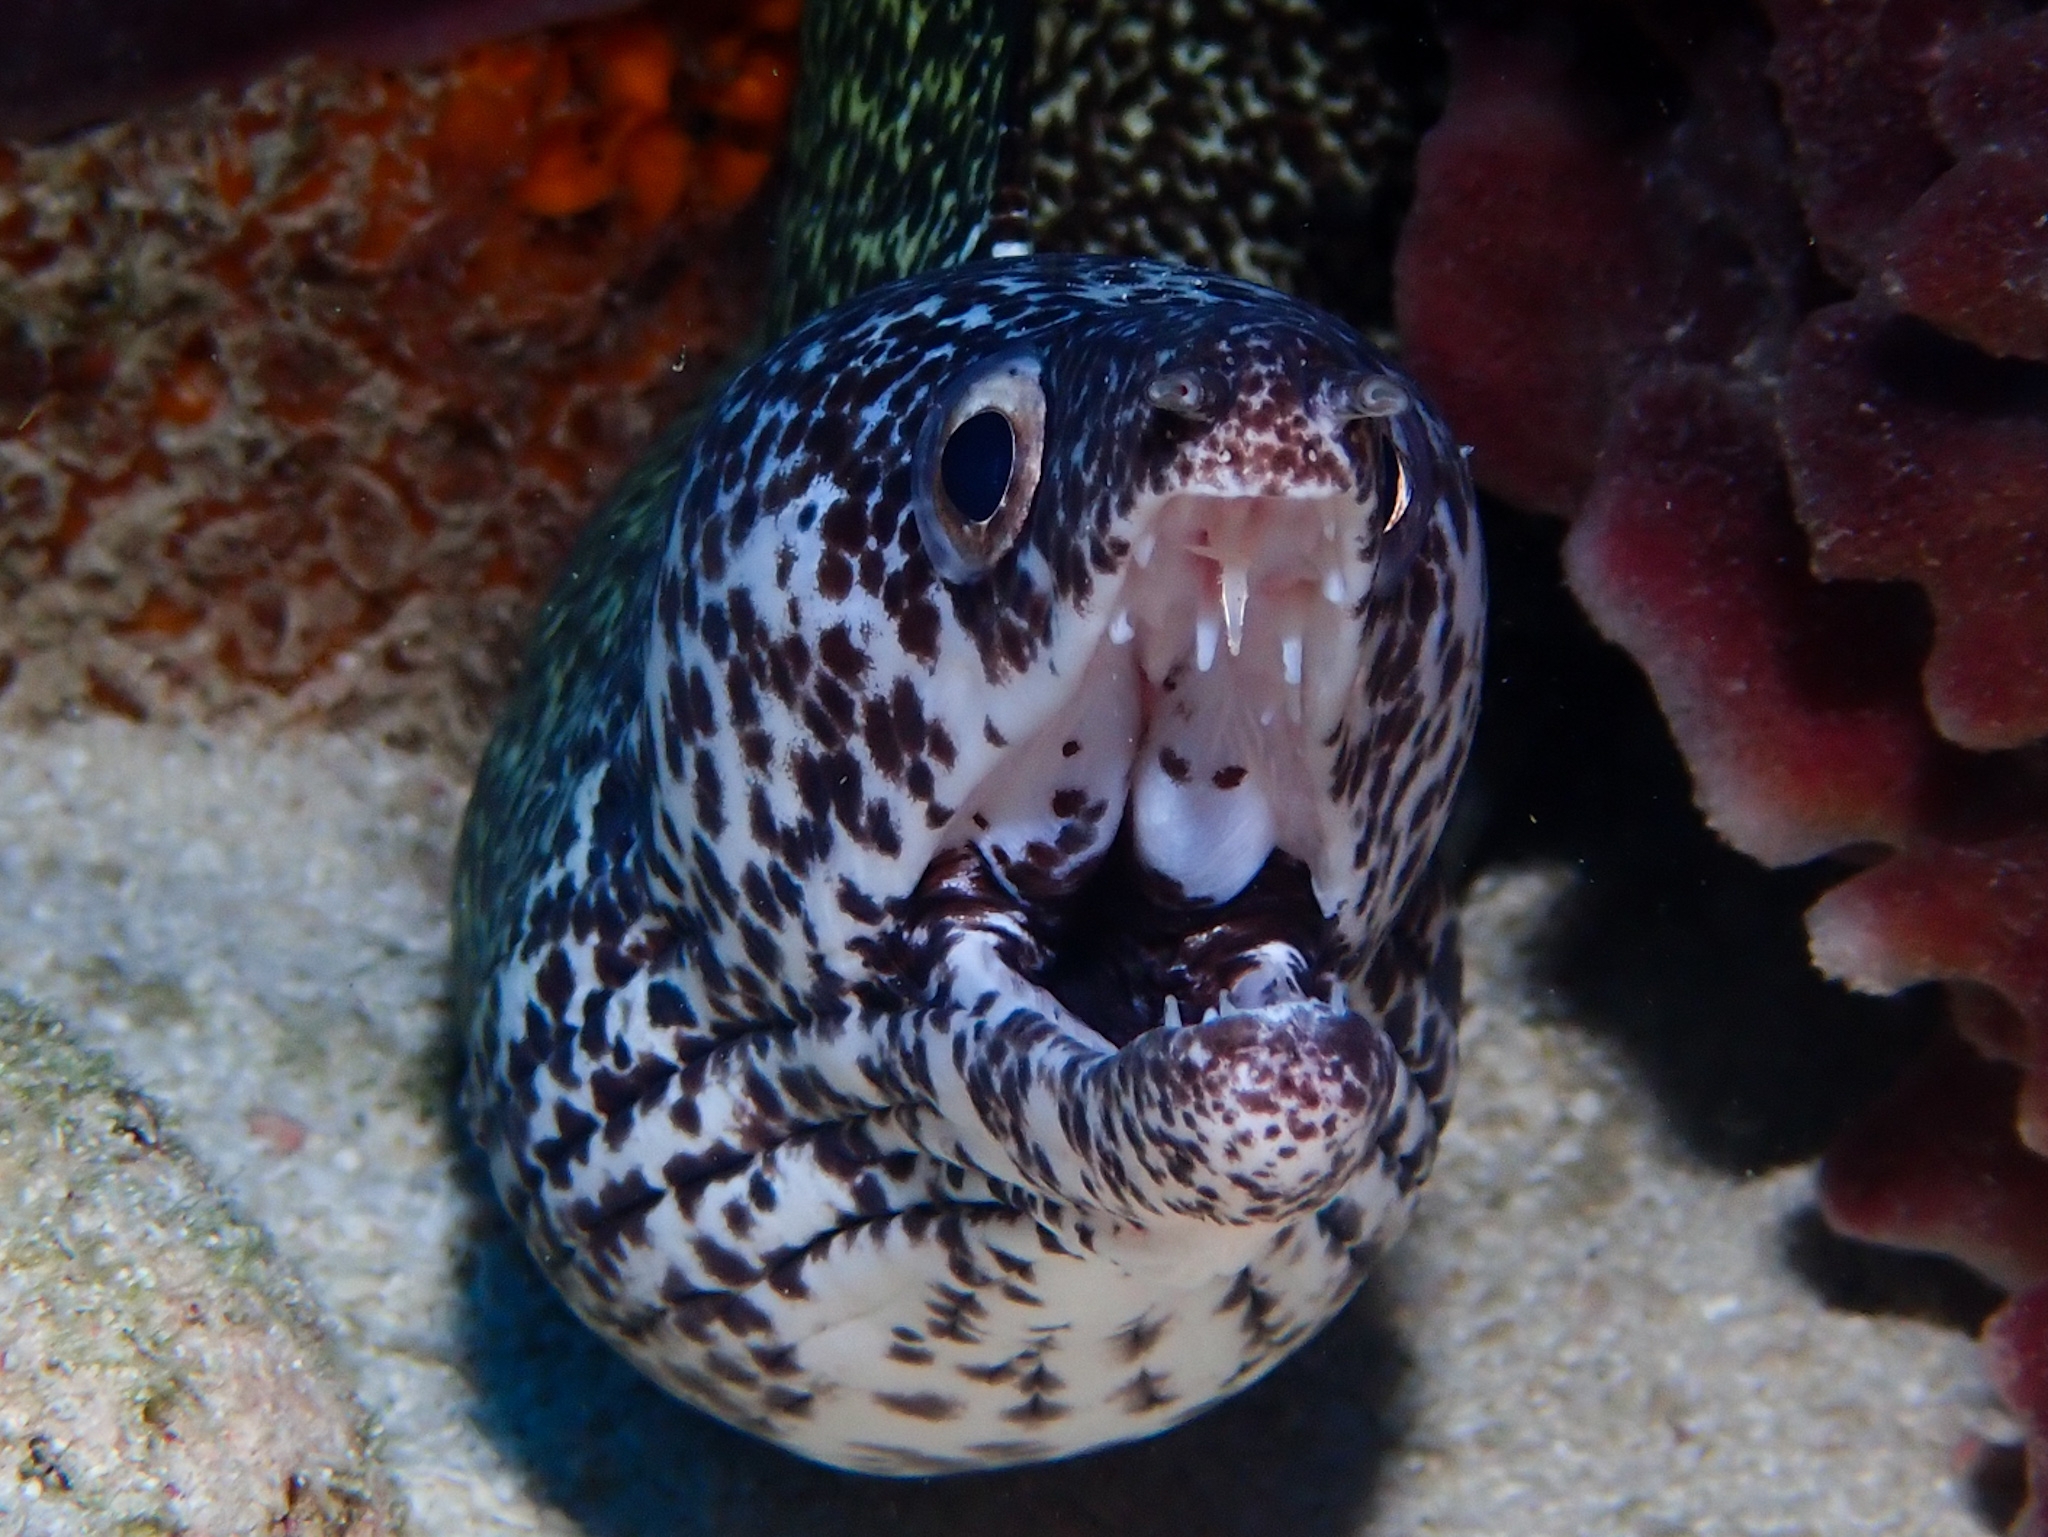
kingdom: Animalia
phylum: Chordata
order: Anguilliformes
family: Muraenidae
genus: Gymnothorax
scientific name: Gymnothorax moringa
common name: Spotted moray
